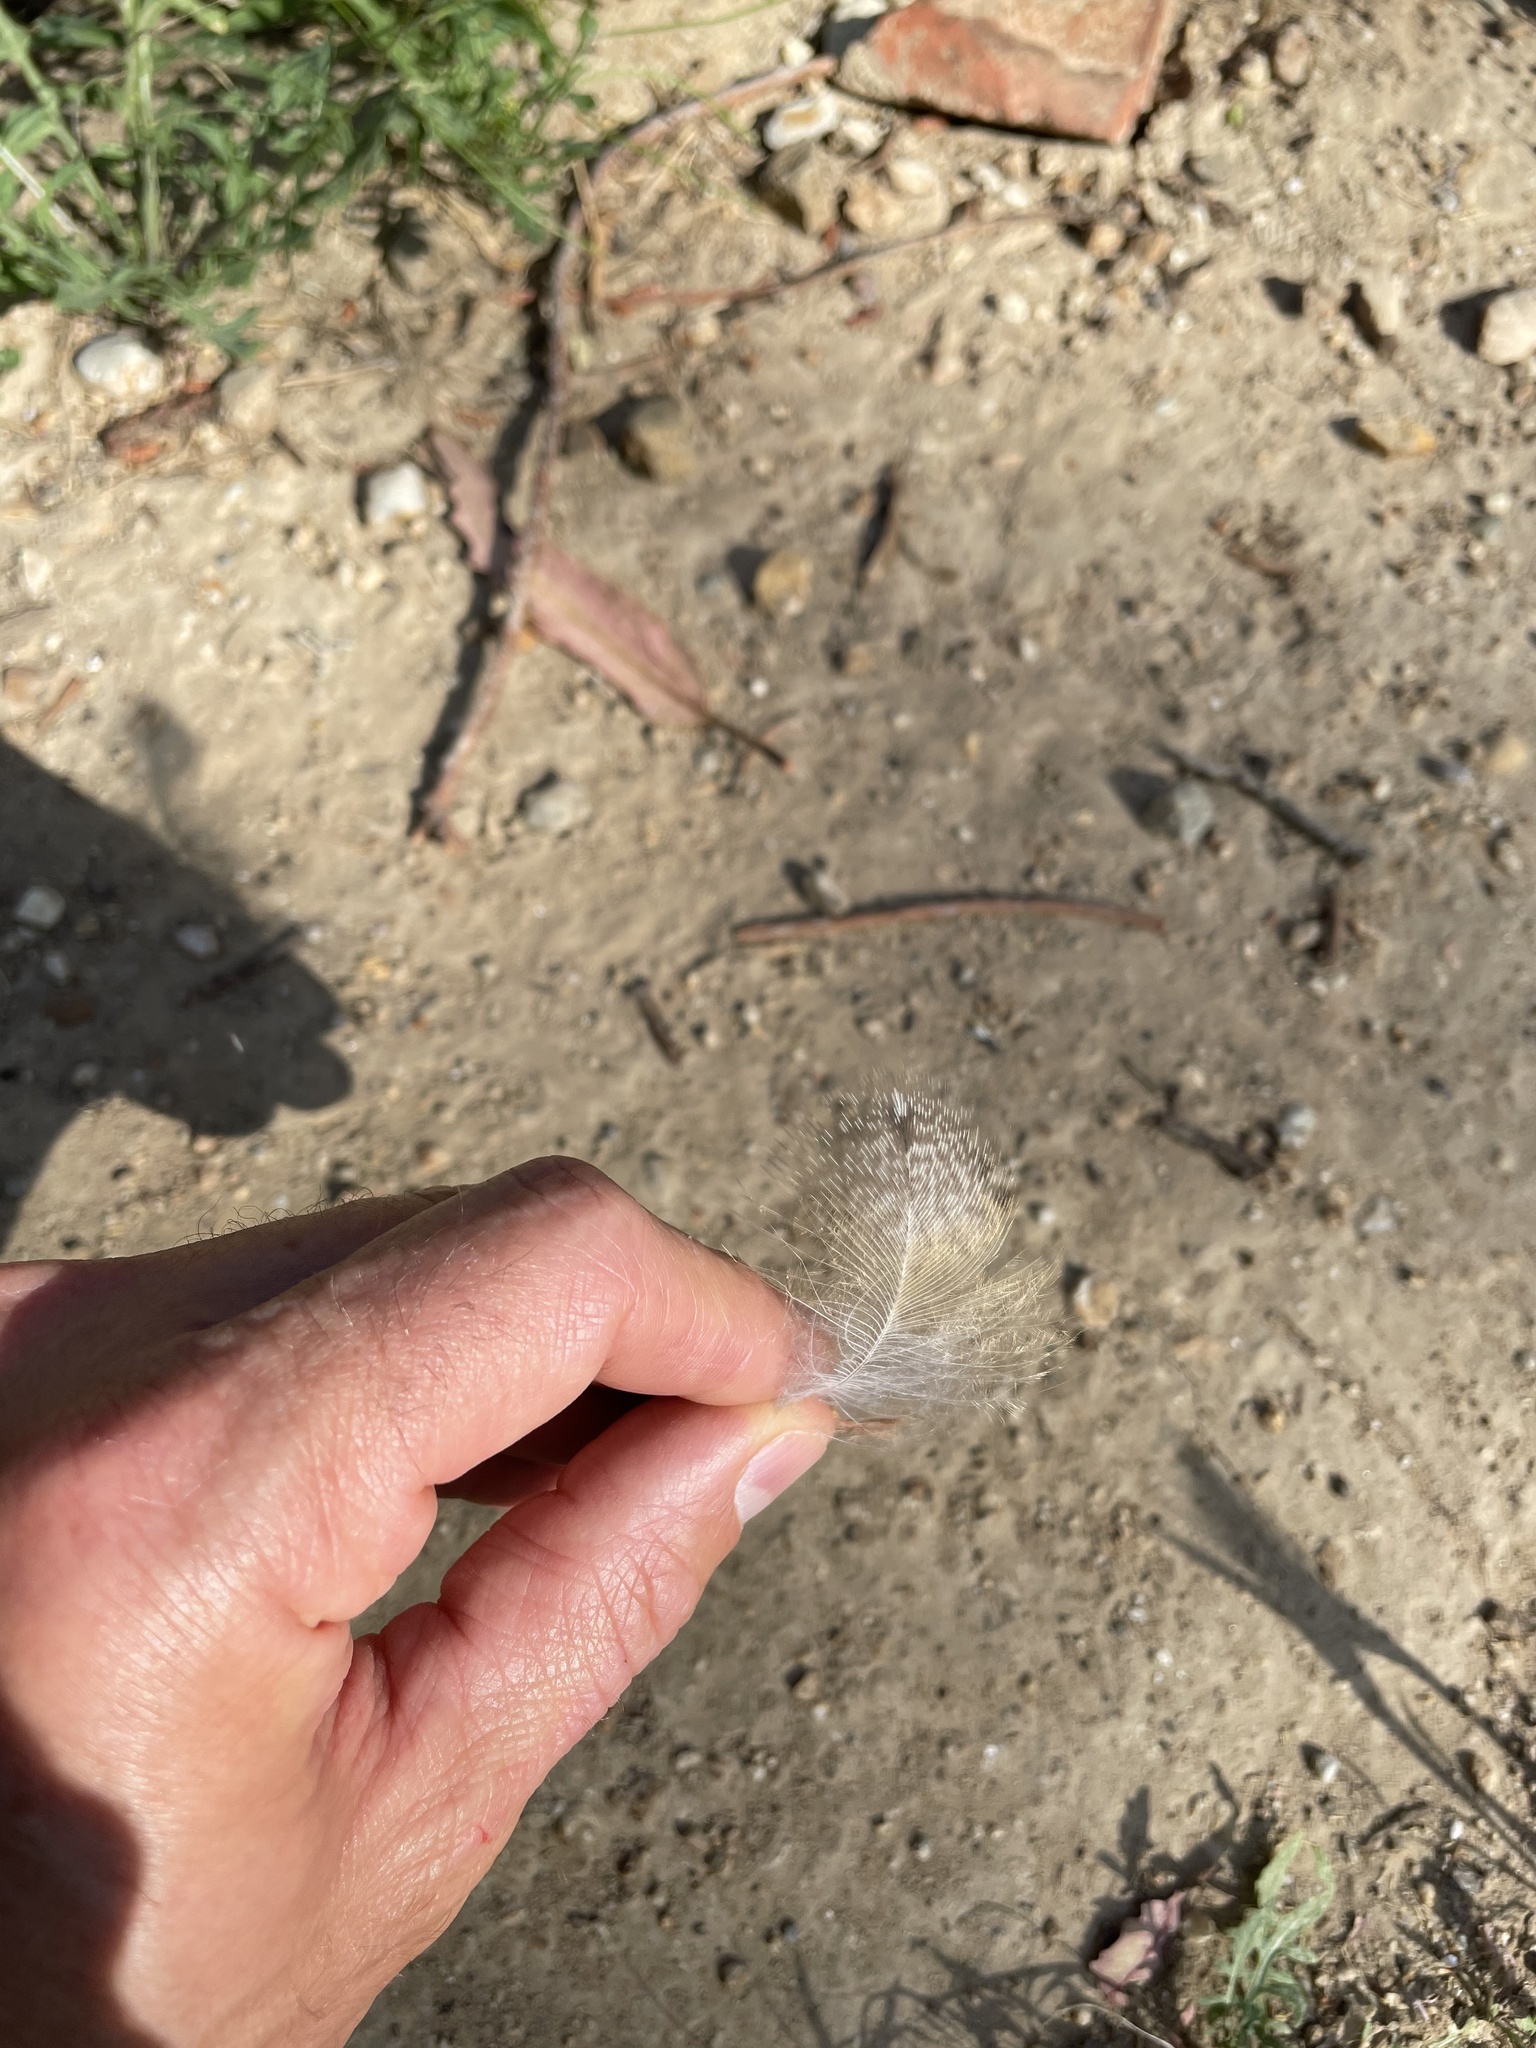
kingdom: Animalia
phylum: Chordata
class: Aves
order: Strigiformes
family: Tytonidae
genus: Tyto
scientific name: Tyto alba
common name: Barn owl
